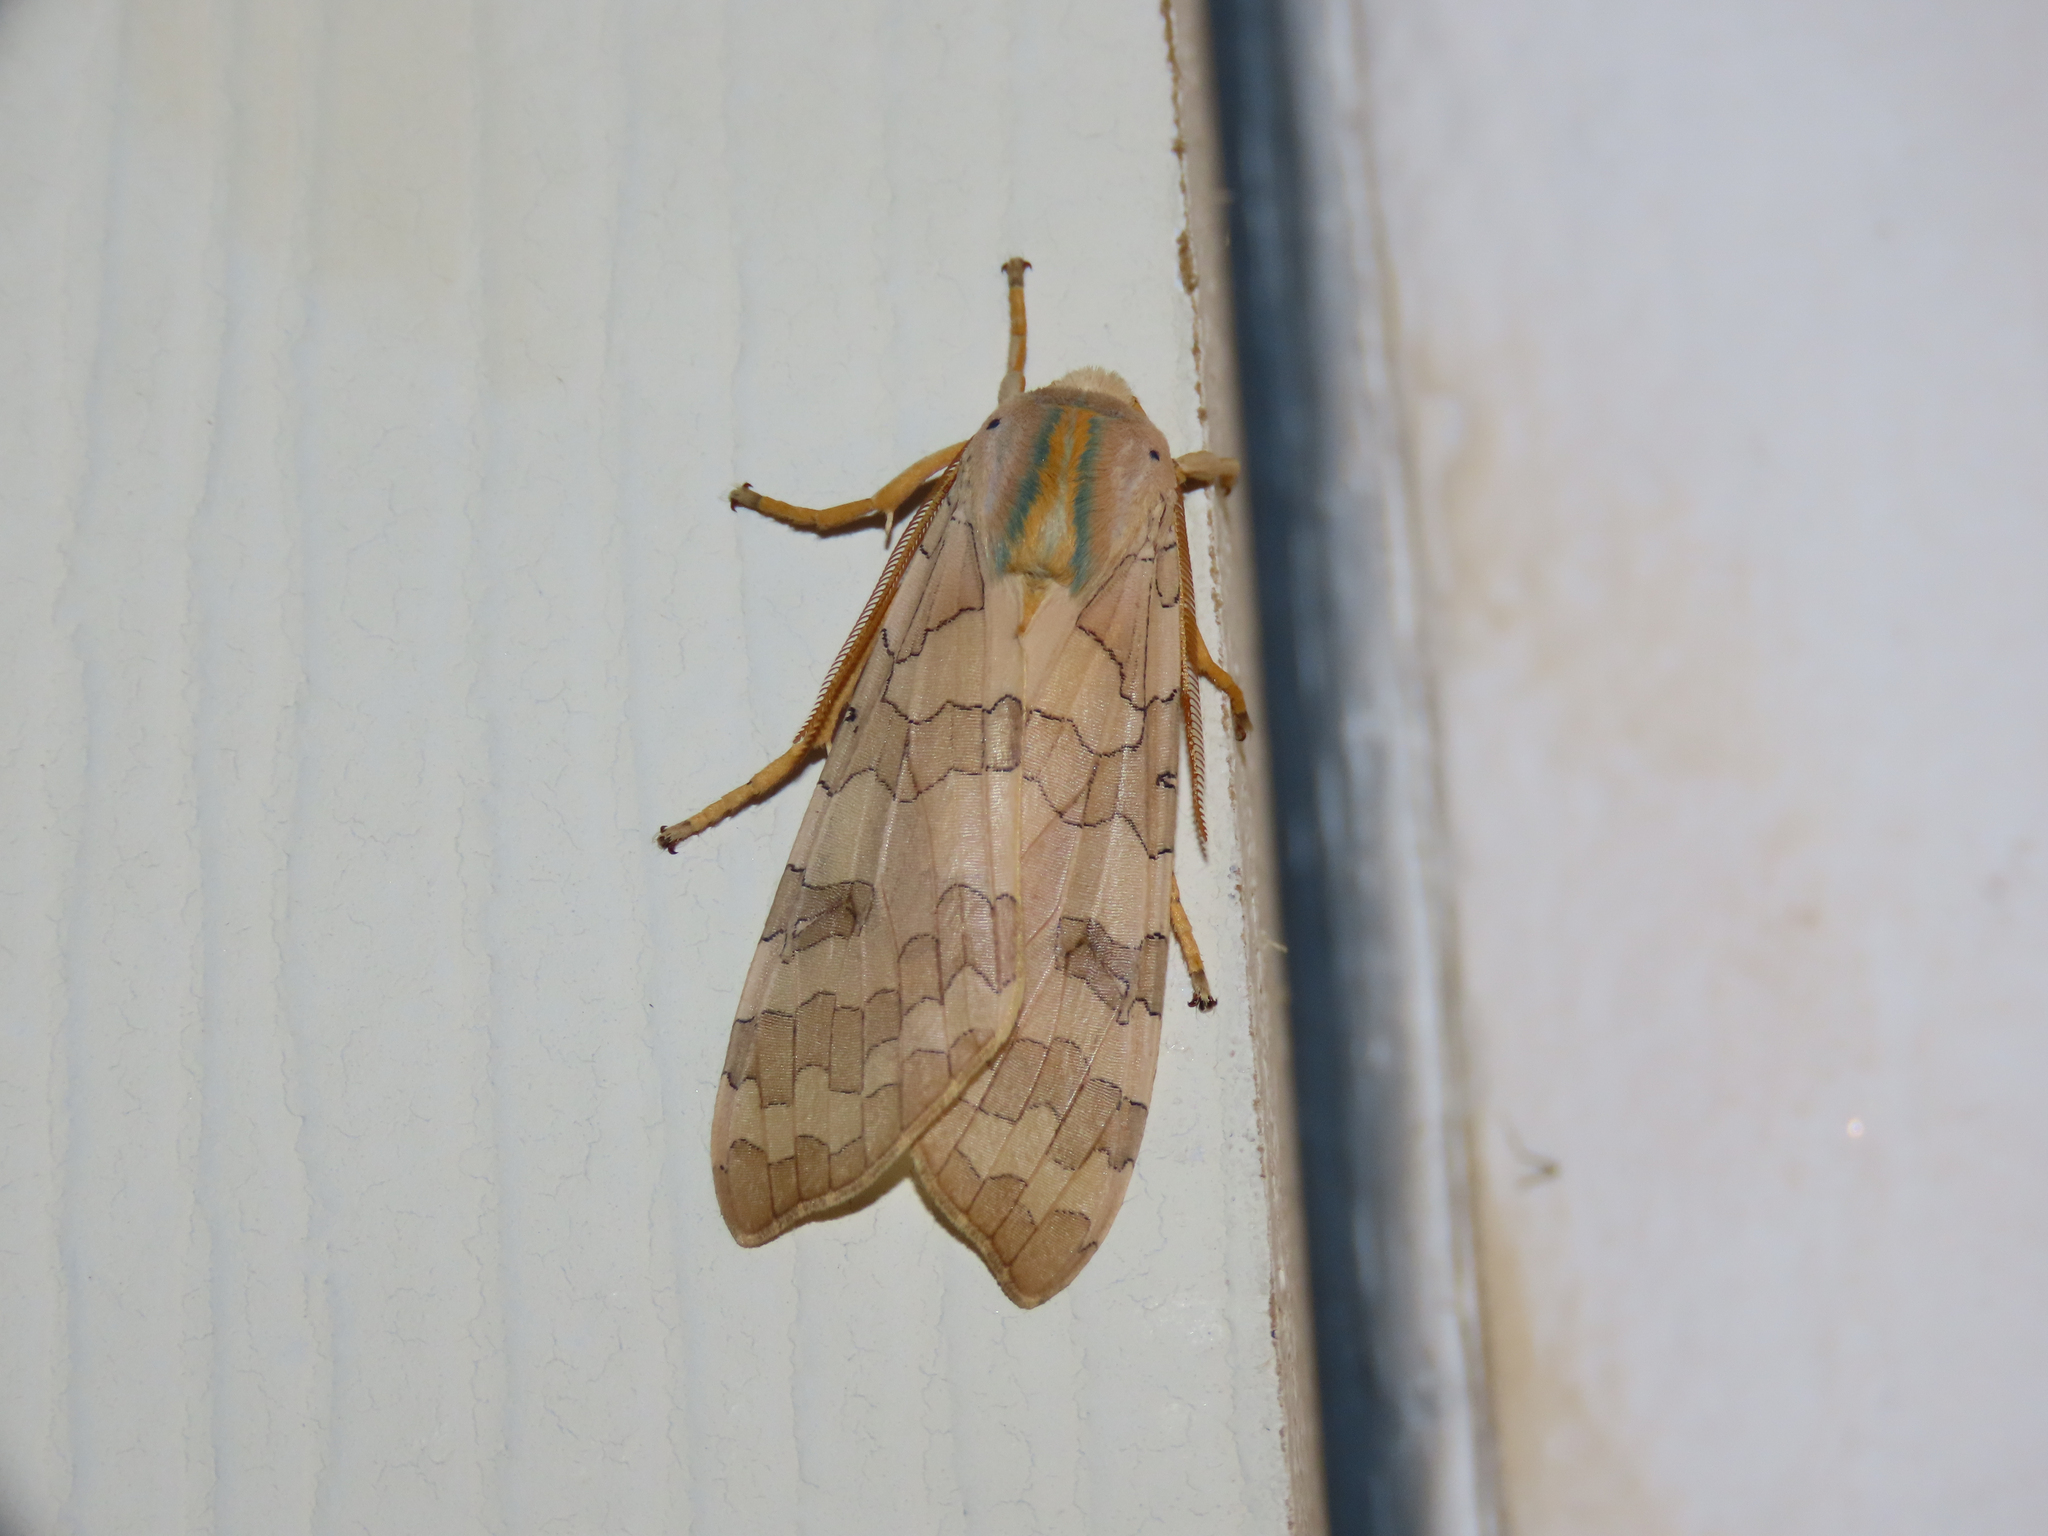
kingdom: Animalia
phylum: Arthropoda
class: Insecta
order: Lepidoptera
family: Erebidae
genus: Halysidota
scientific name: Halysidota
